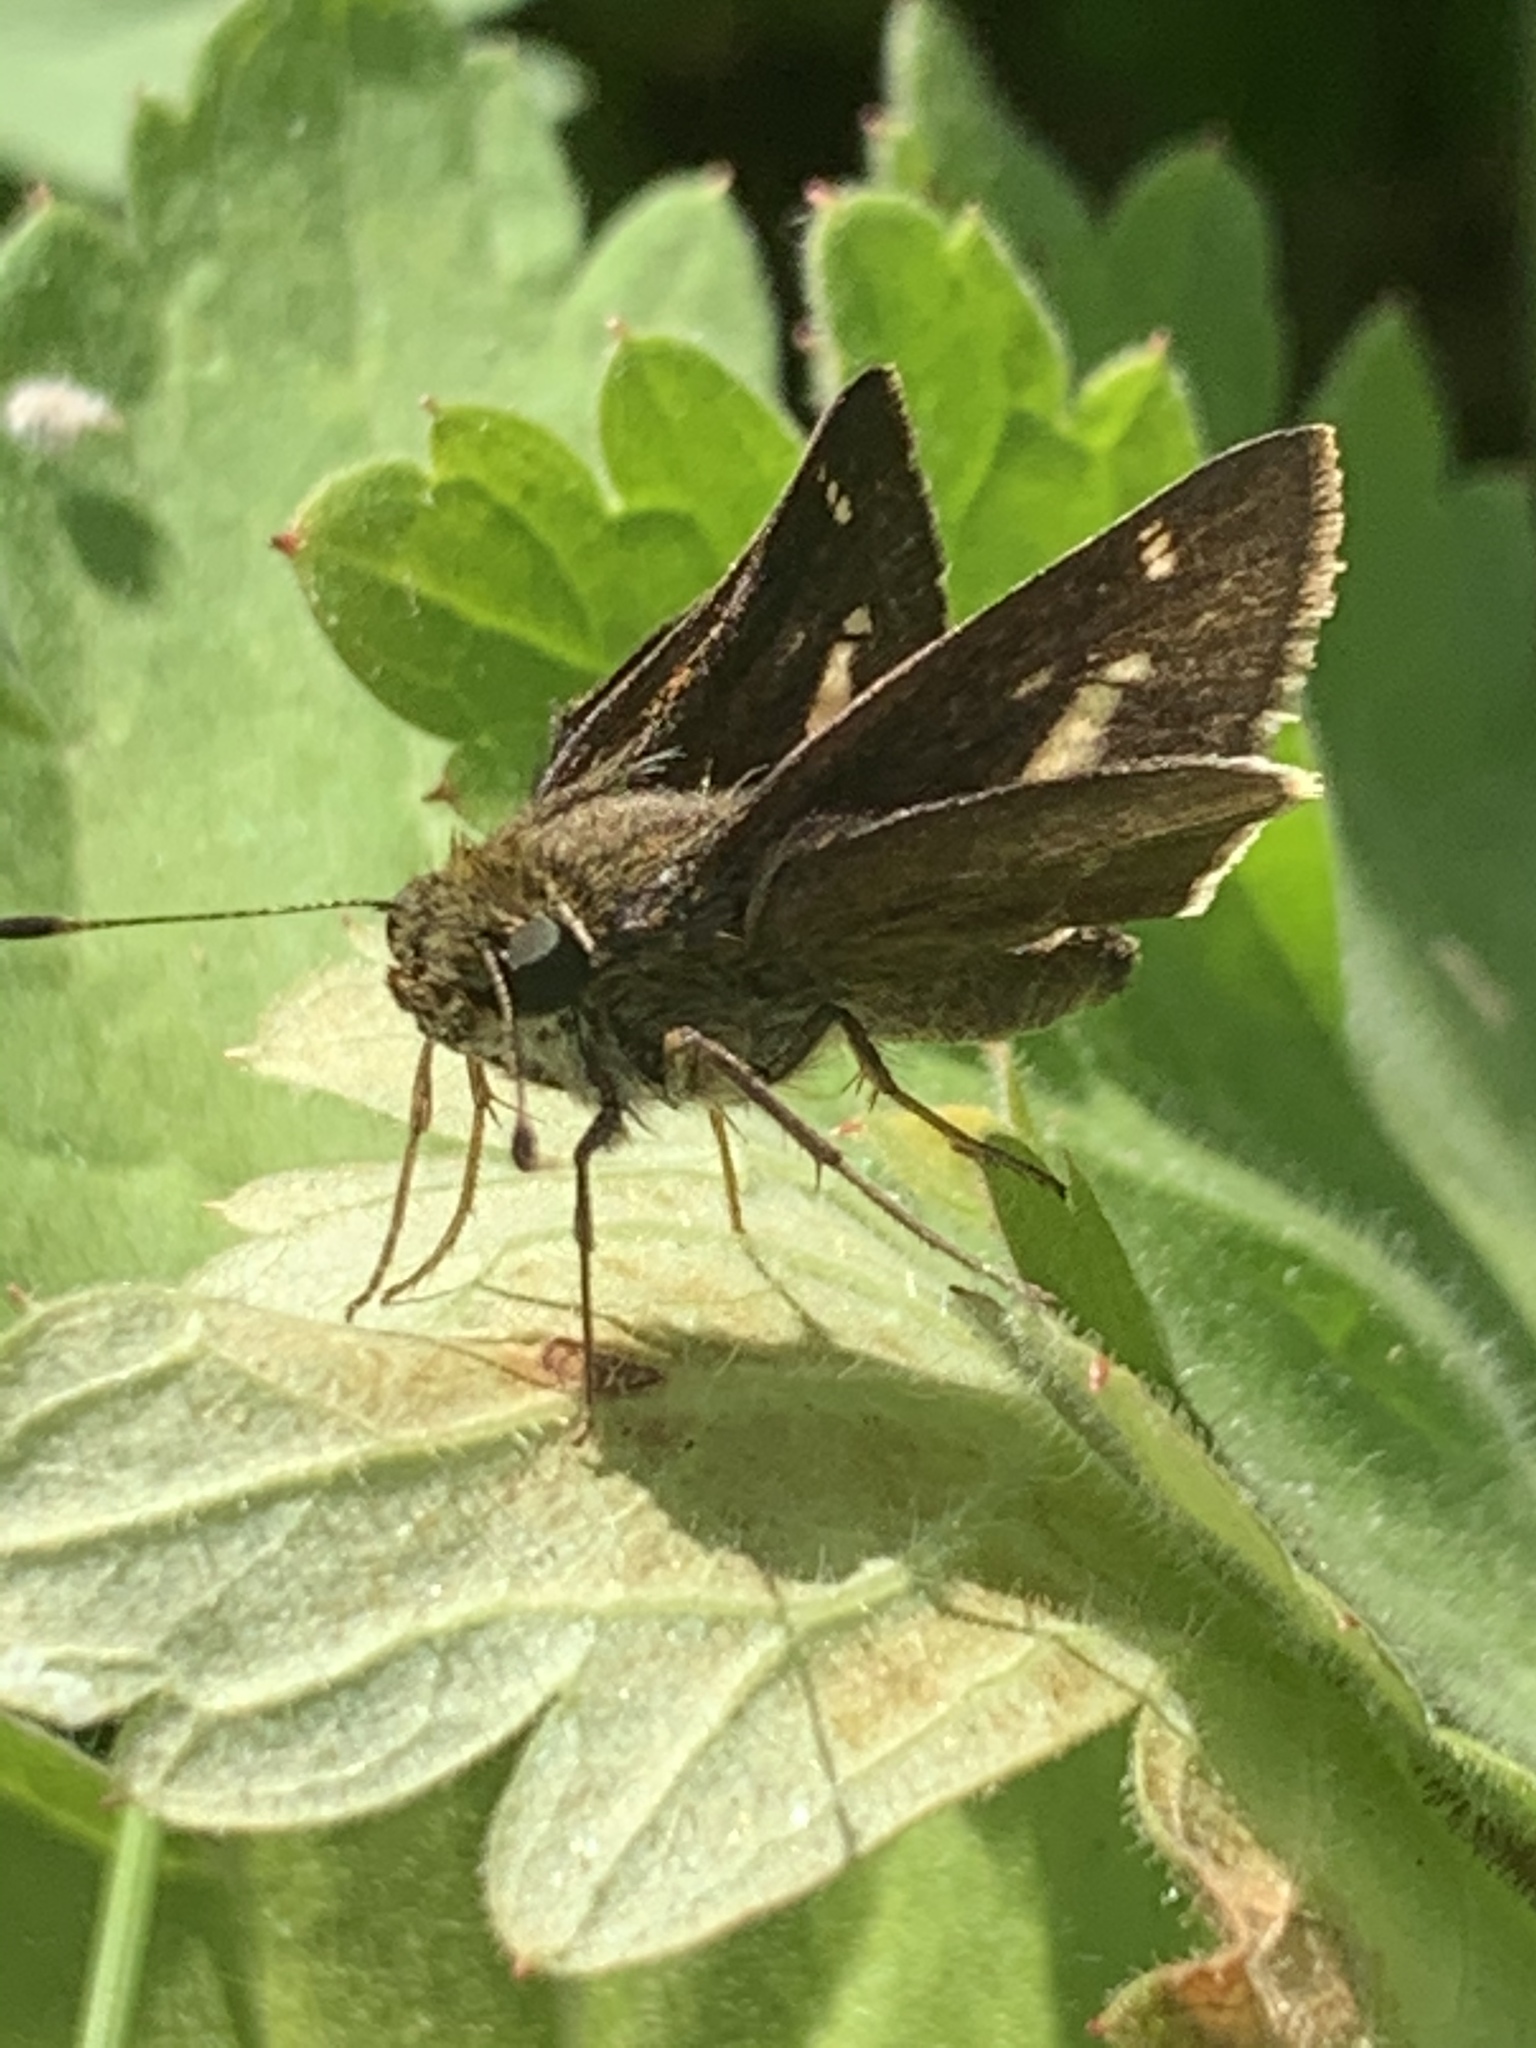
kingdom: Animalia
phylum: Arthropoda
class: Insecta
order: Lepidoptera
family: Hesperiidae
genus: Vernia
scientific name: Vernia verna
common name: Little glassywing
